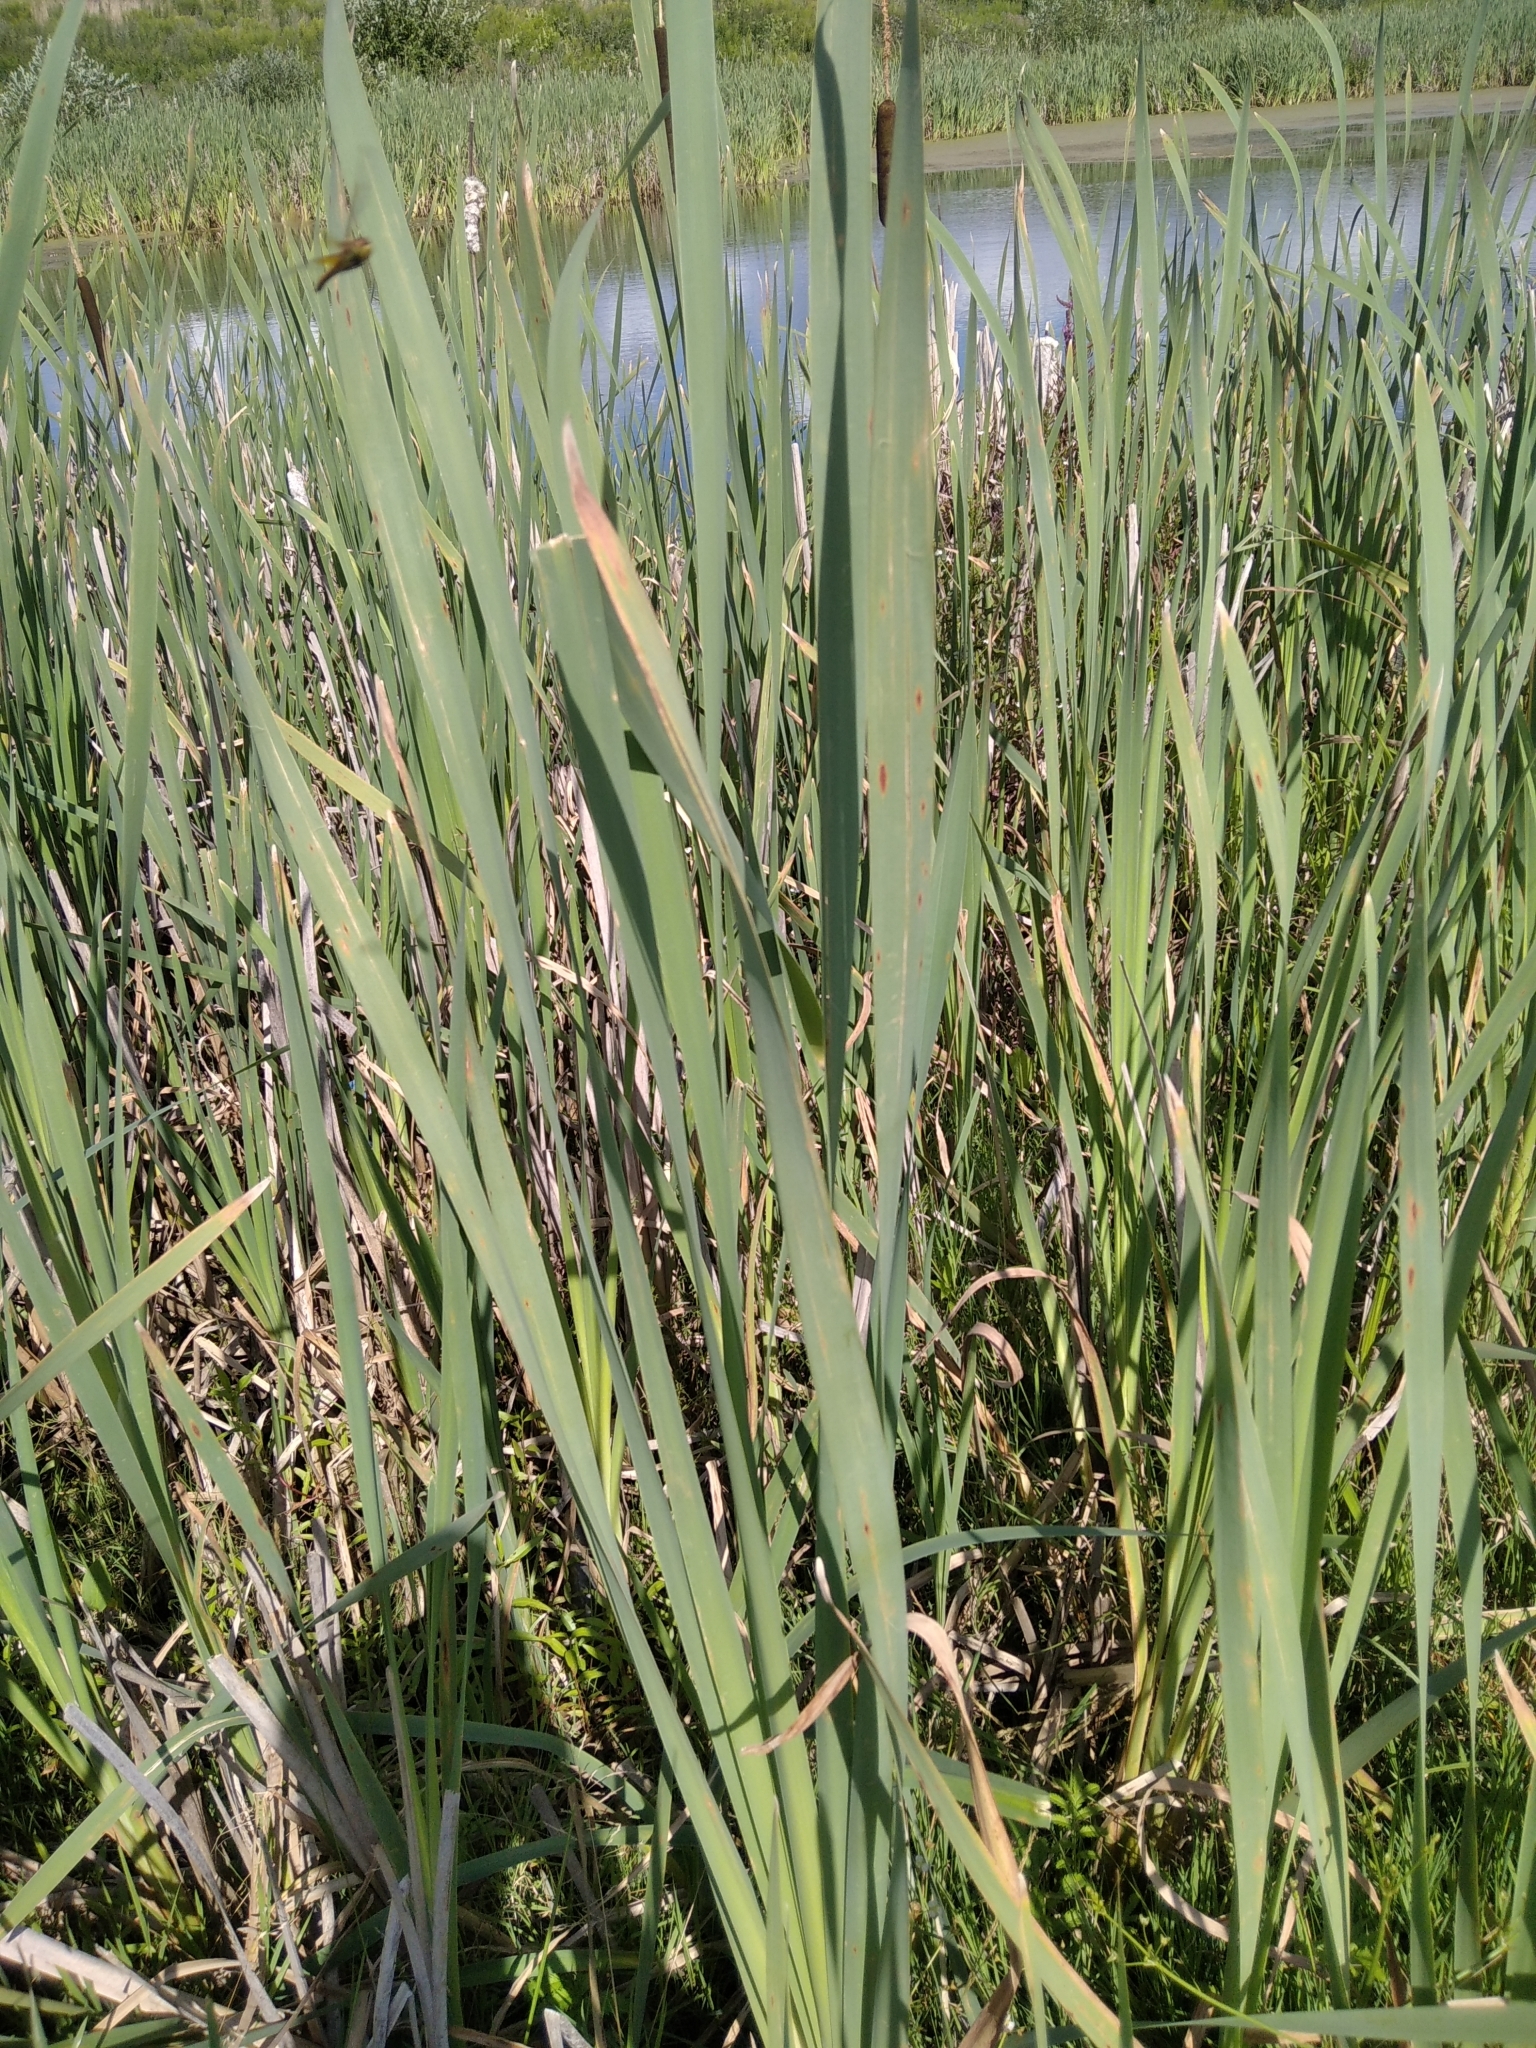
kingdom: Plantae
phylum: Tracheophyta
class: Liliopsida
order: Poales
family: Typhaceae
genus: Typha
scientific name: Typha latifolia
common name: Broadleaf cattail
